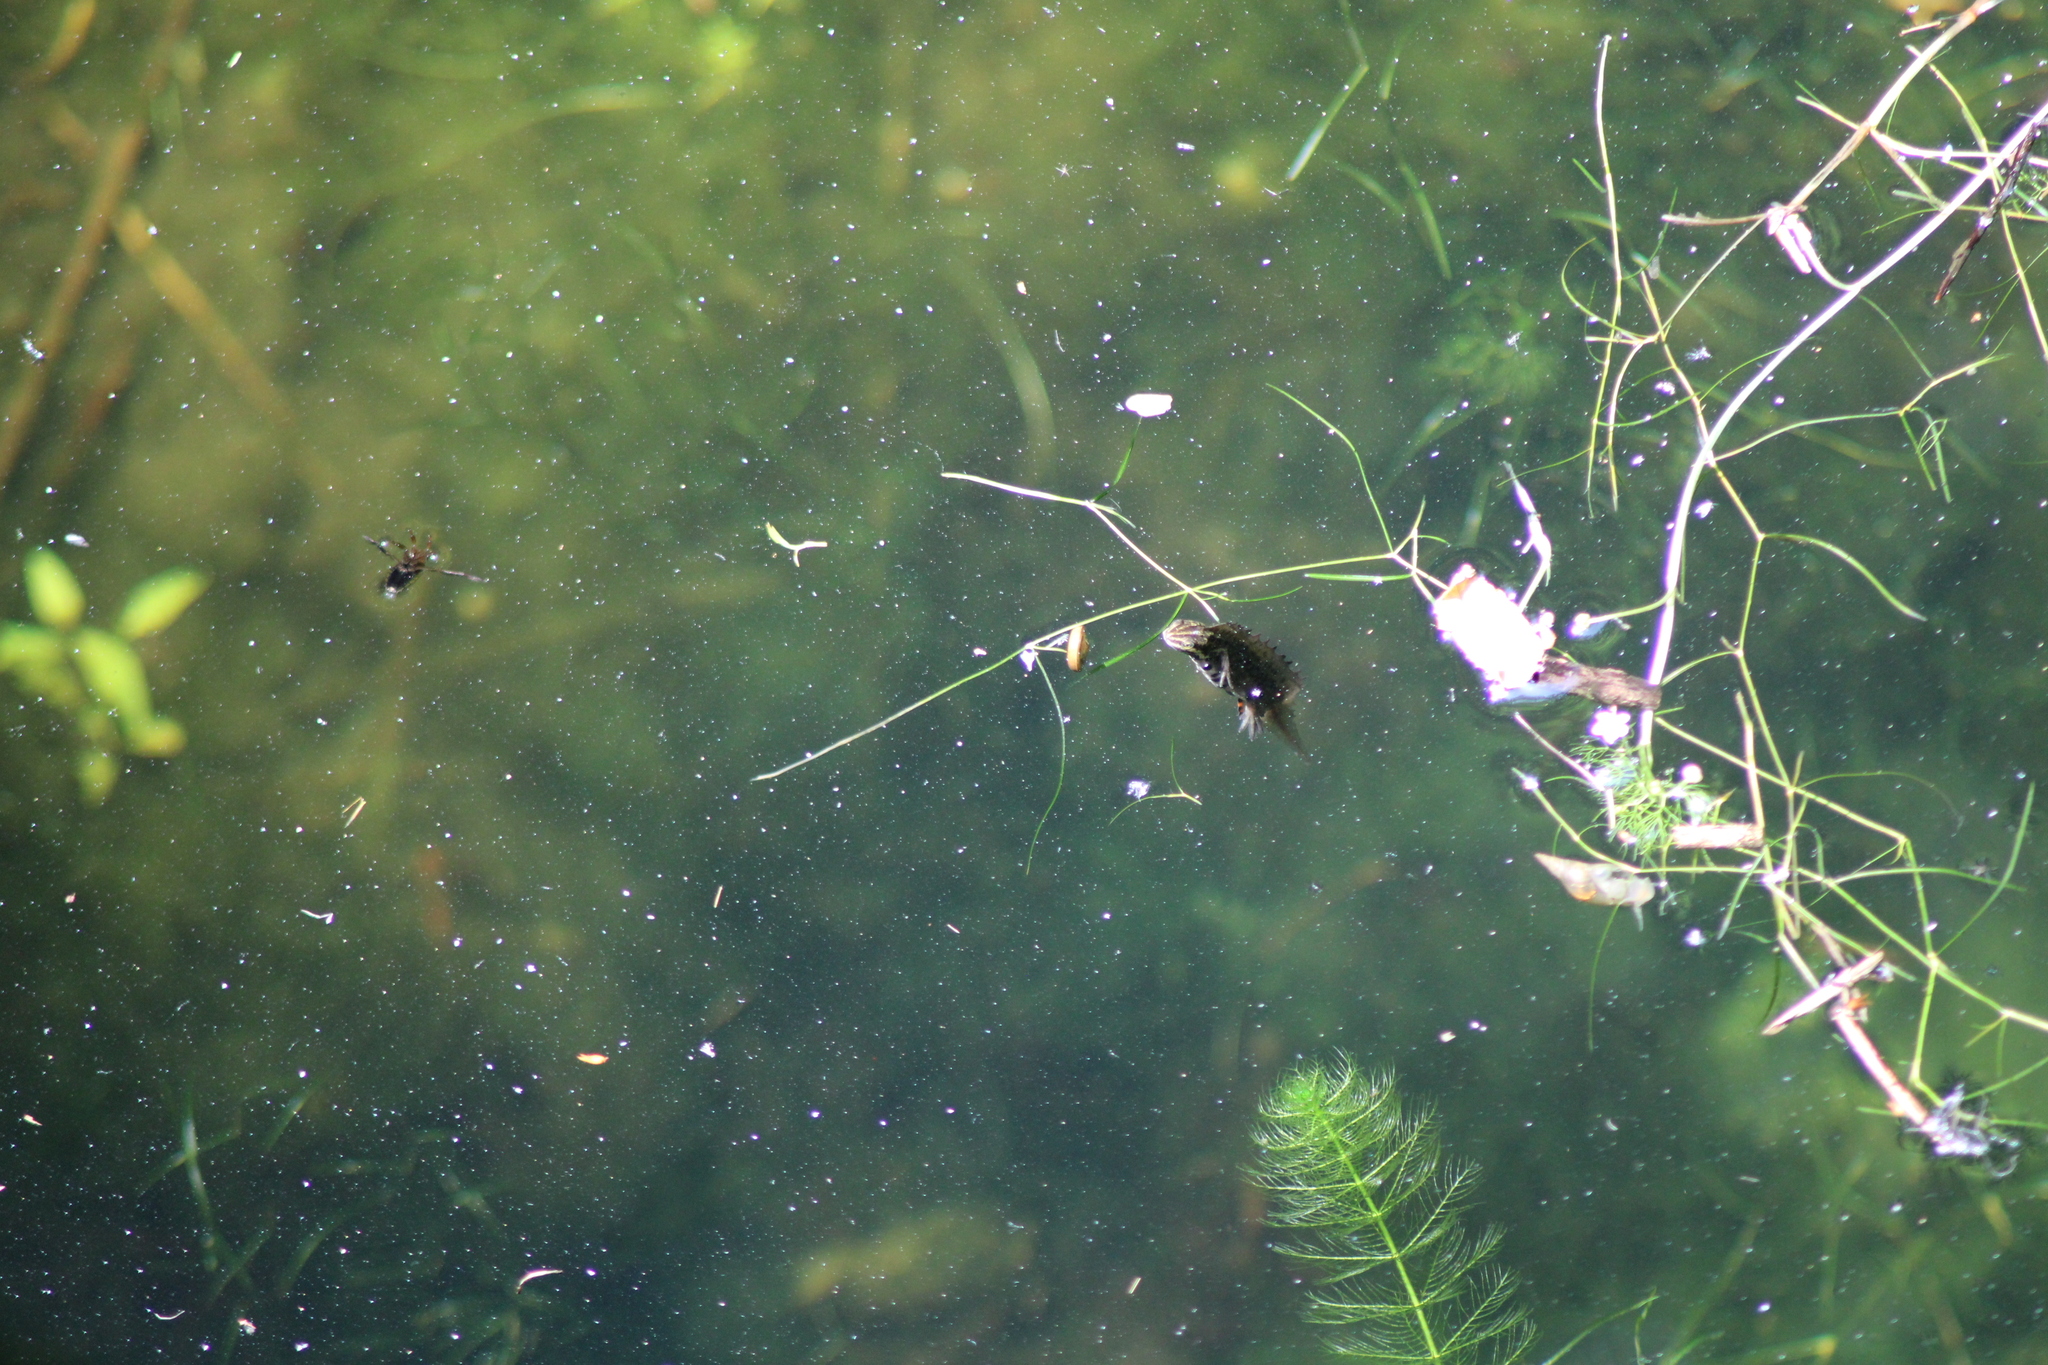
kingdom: Animalia
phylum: Chordata
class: Amphibia
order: Caudata
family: Salamandridae
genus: Lissotriton
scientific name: Lissotriton vulgaris
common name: Smooth newt
